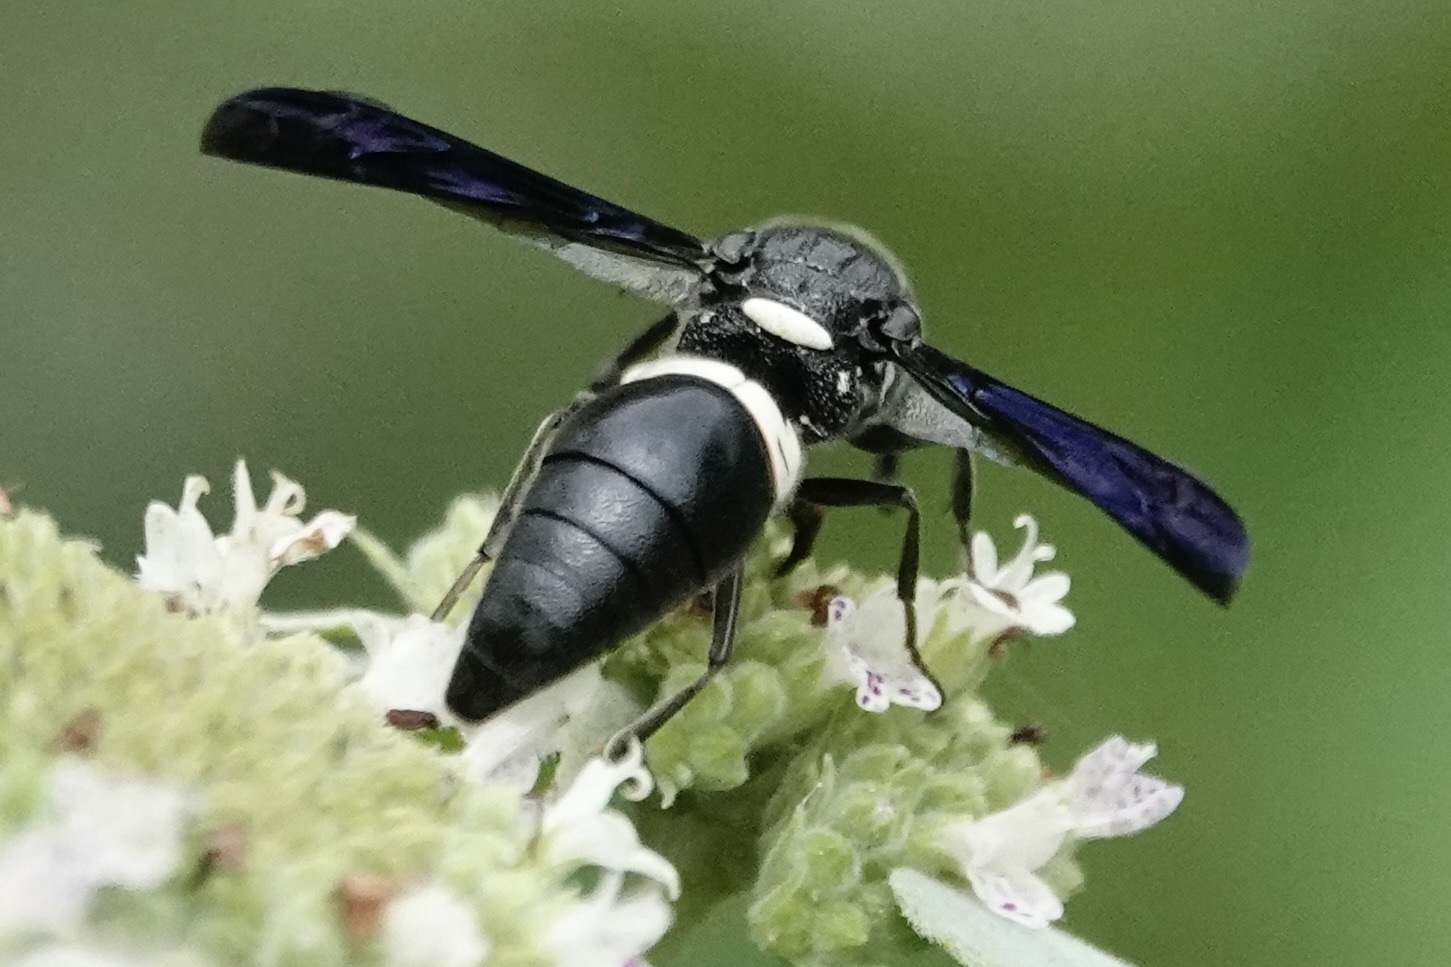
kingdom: Animalia
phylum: Arthropoda
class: Insecta
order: Hymenoptera
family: Eumenidae
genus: Monobia
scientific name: Monobia quadridens
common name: Four-toothed mason wasp
